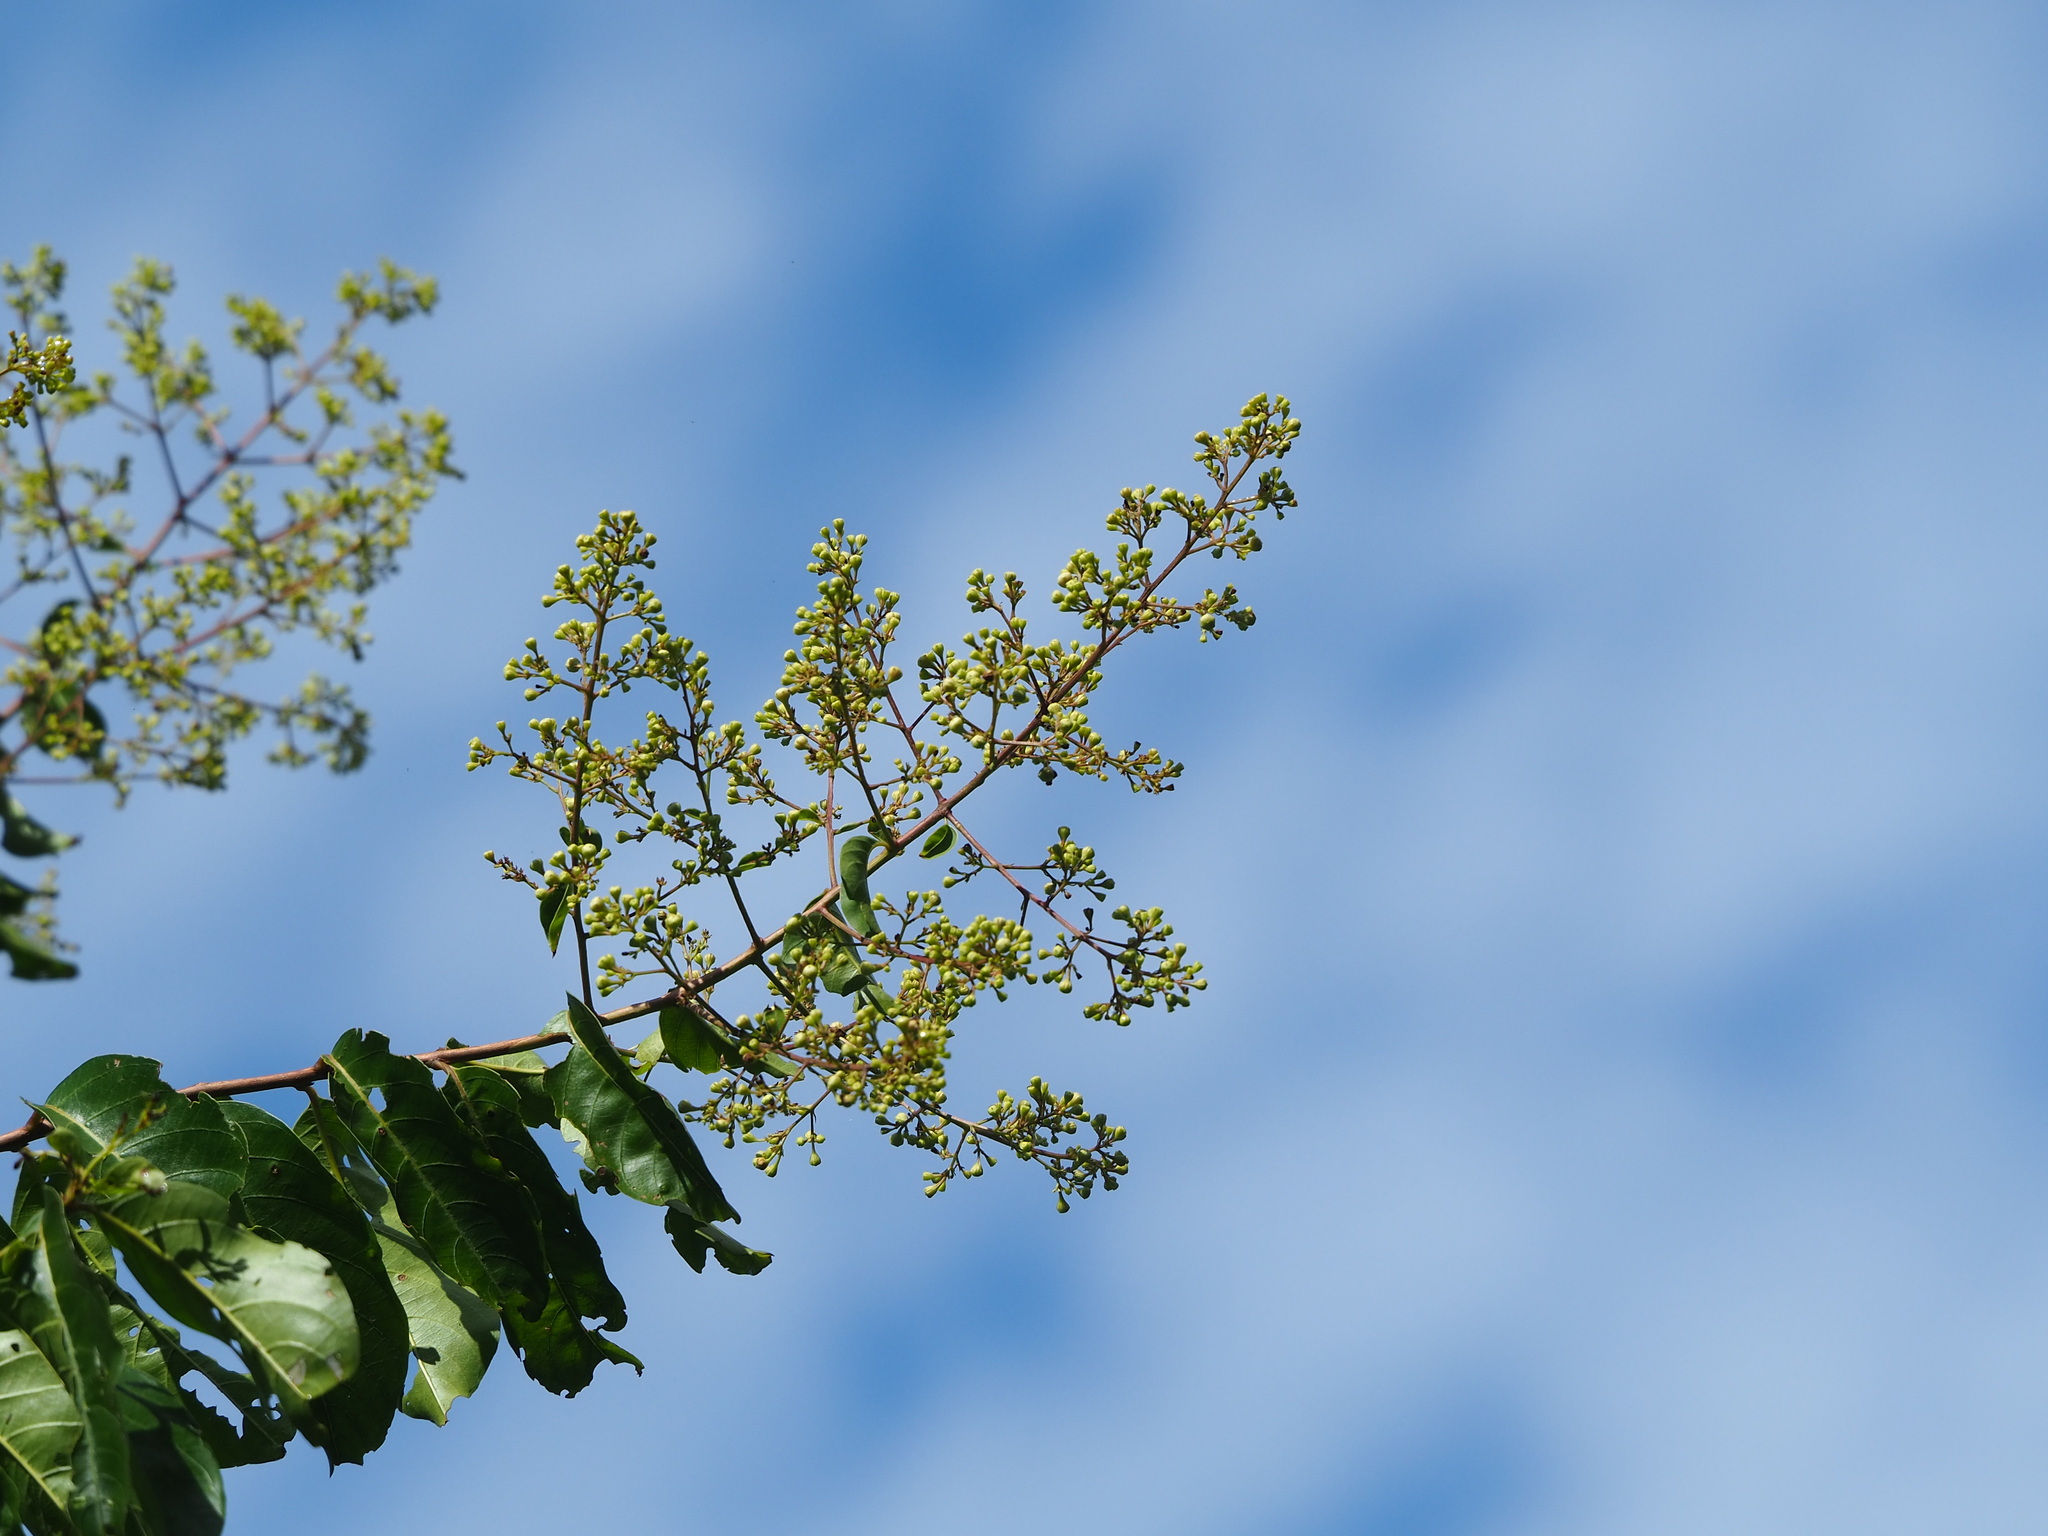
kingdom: Plantae
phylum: Tracheophyta
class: Magnoliopsida
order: Myrtales
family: Lythraceae
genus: Lagerstroemia
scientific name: Lagerstroemia subcostata
